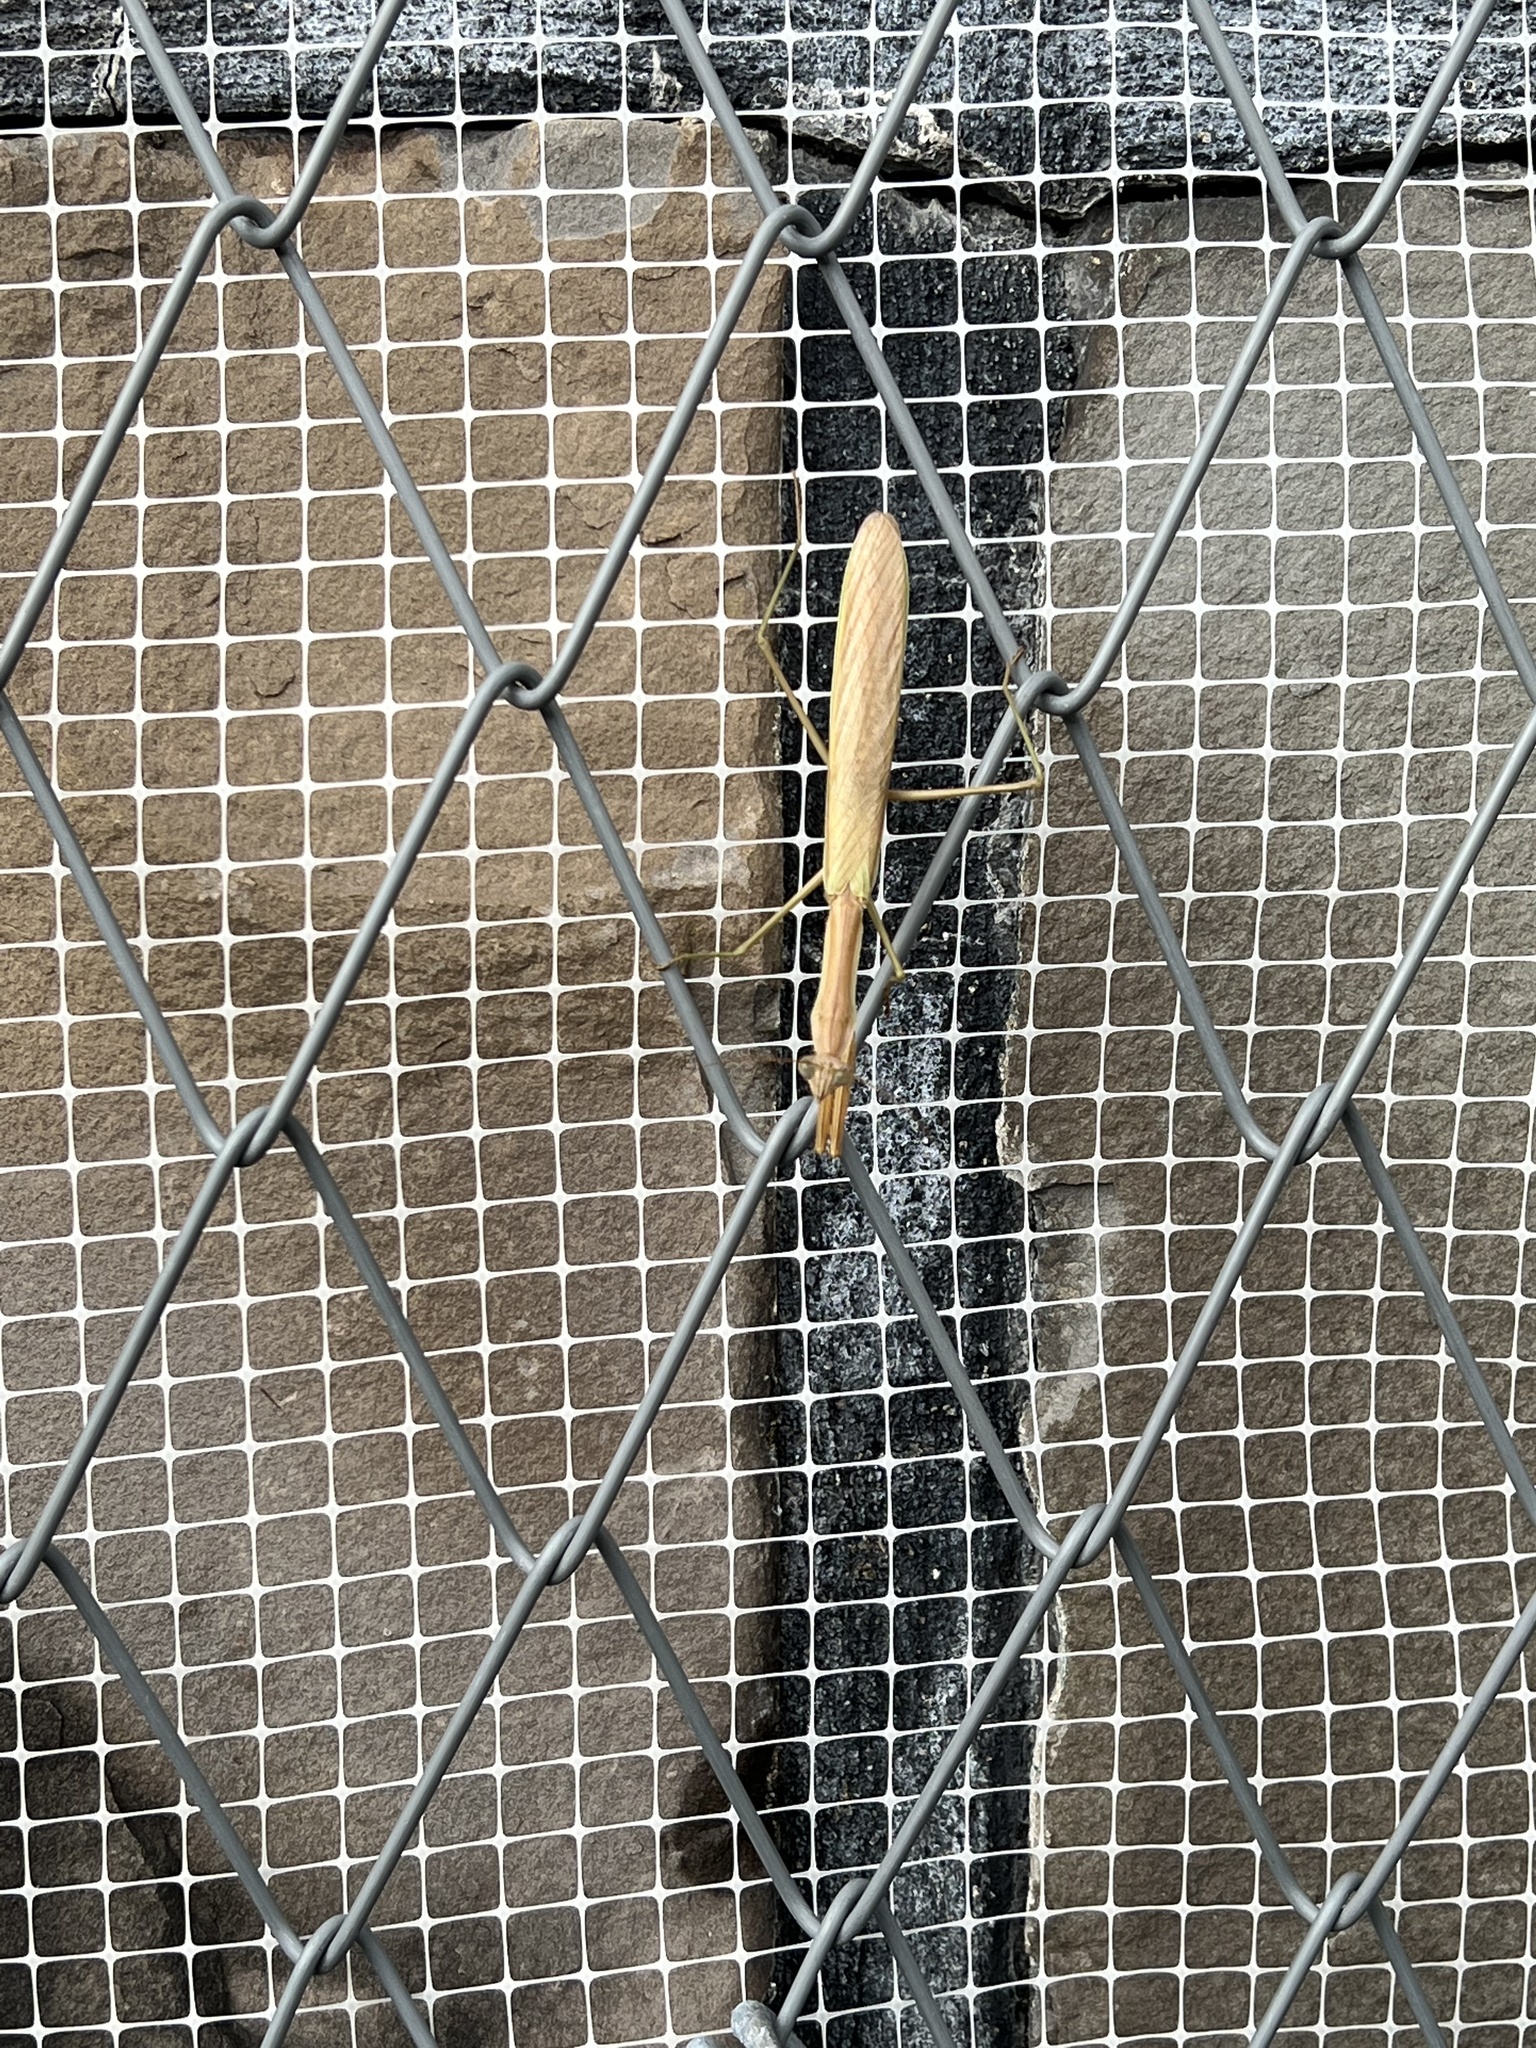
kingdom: Animalia
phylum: Arthropoda
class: Insecta
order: Mantodea
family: Mantidae
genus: Tenodera
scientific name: Tenodera sinensis
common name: Chinese mantis
